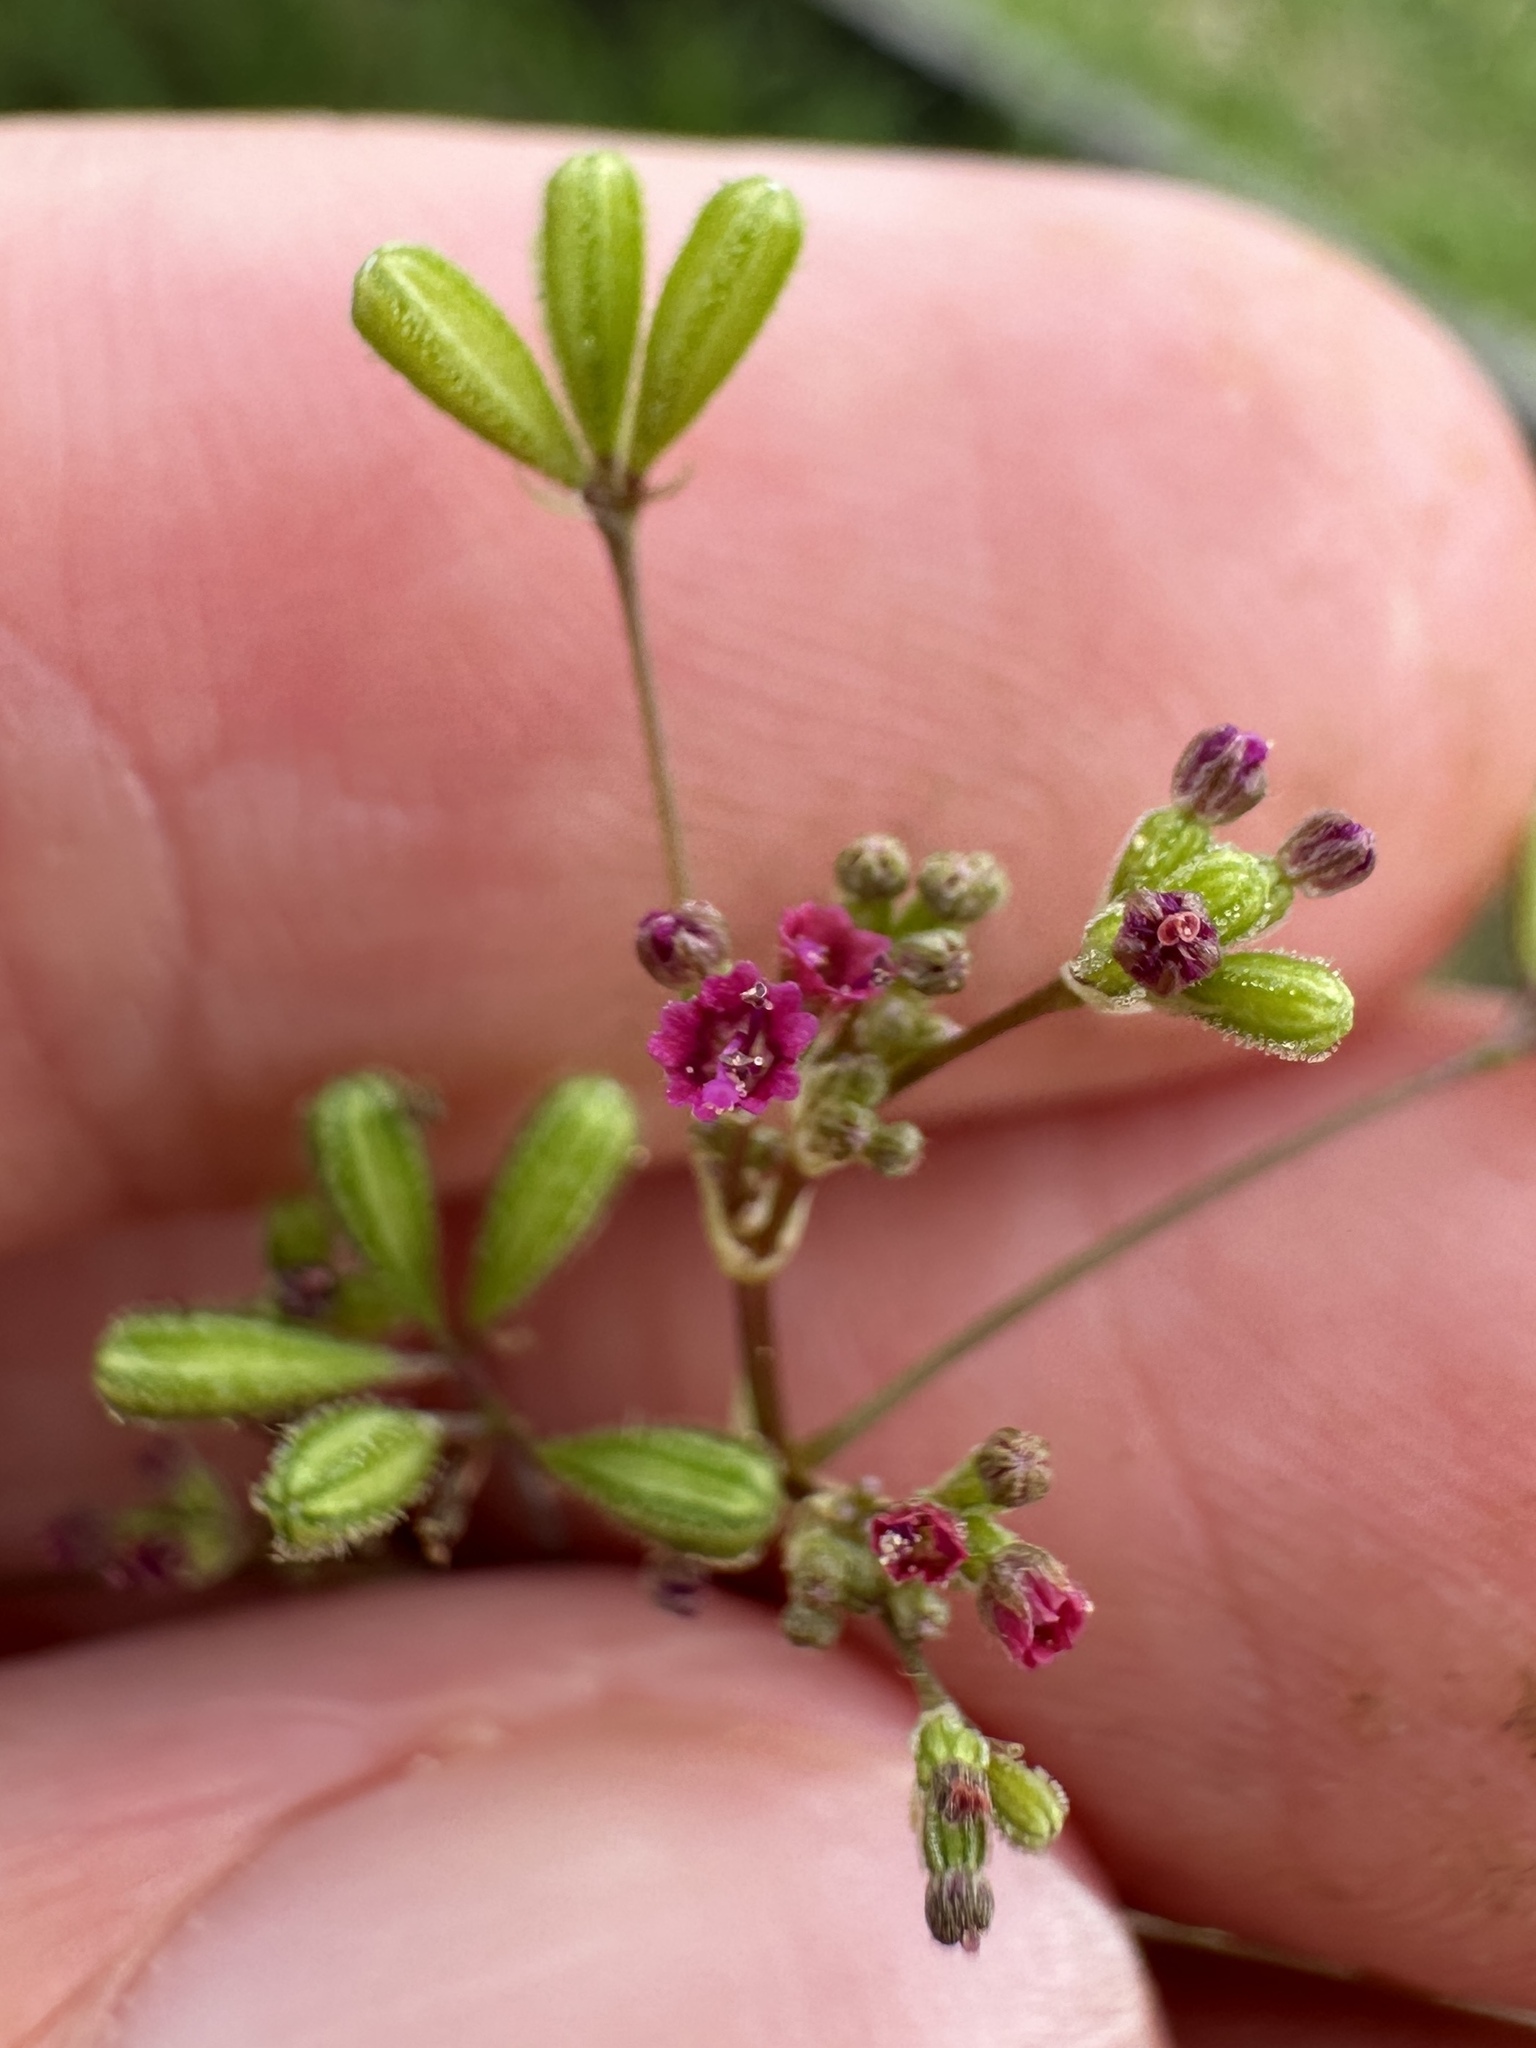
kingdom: Plantae
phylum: Tracheophyta
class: Magnoliopsida
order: Caryophyllales
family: Nyctaginaceae
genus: Boerhavia
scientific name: Boerhavia diffusa
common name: Red spiderling
